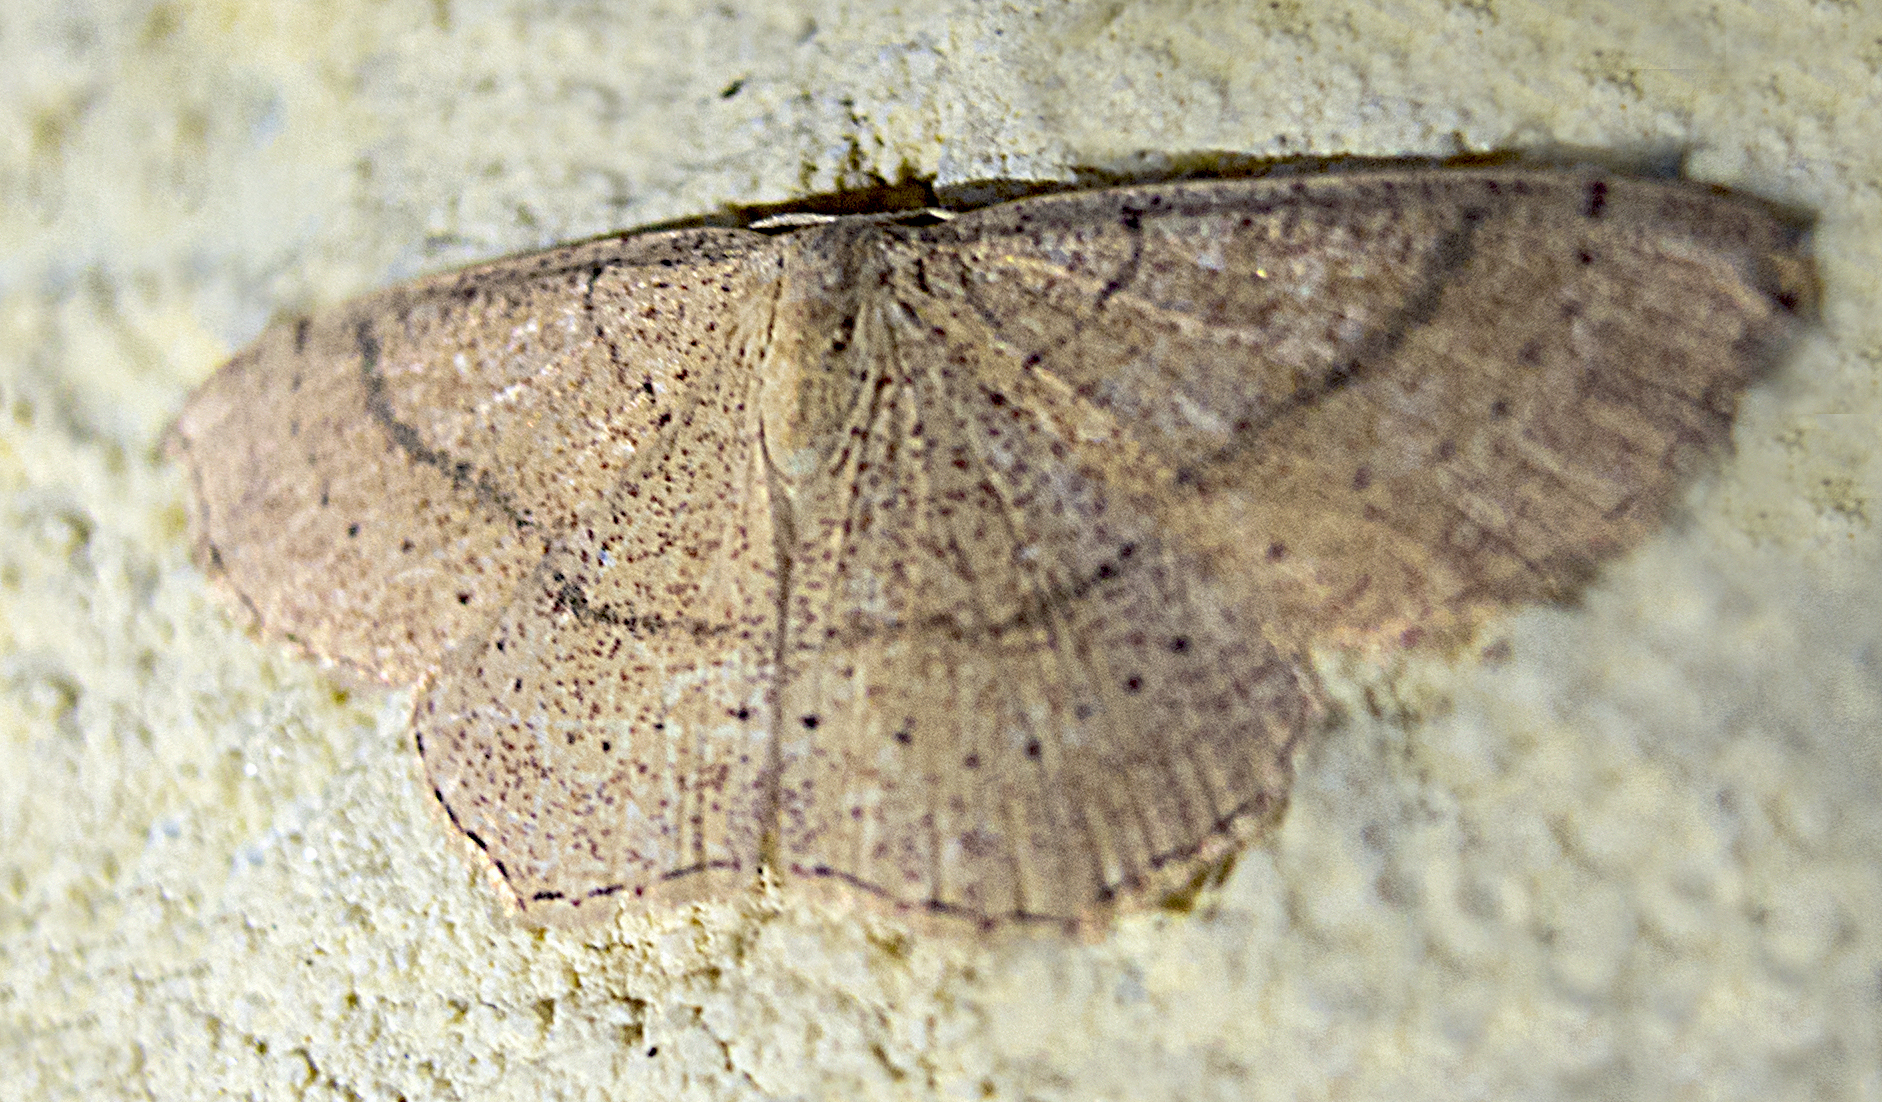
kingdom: Animalia
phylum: Arthropoda
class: Insecta
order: Lepidoptera
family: Geometridae
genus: Cyclophora
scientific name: Cyclophora ruficiliaria
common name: Jersey mocha
